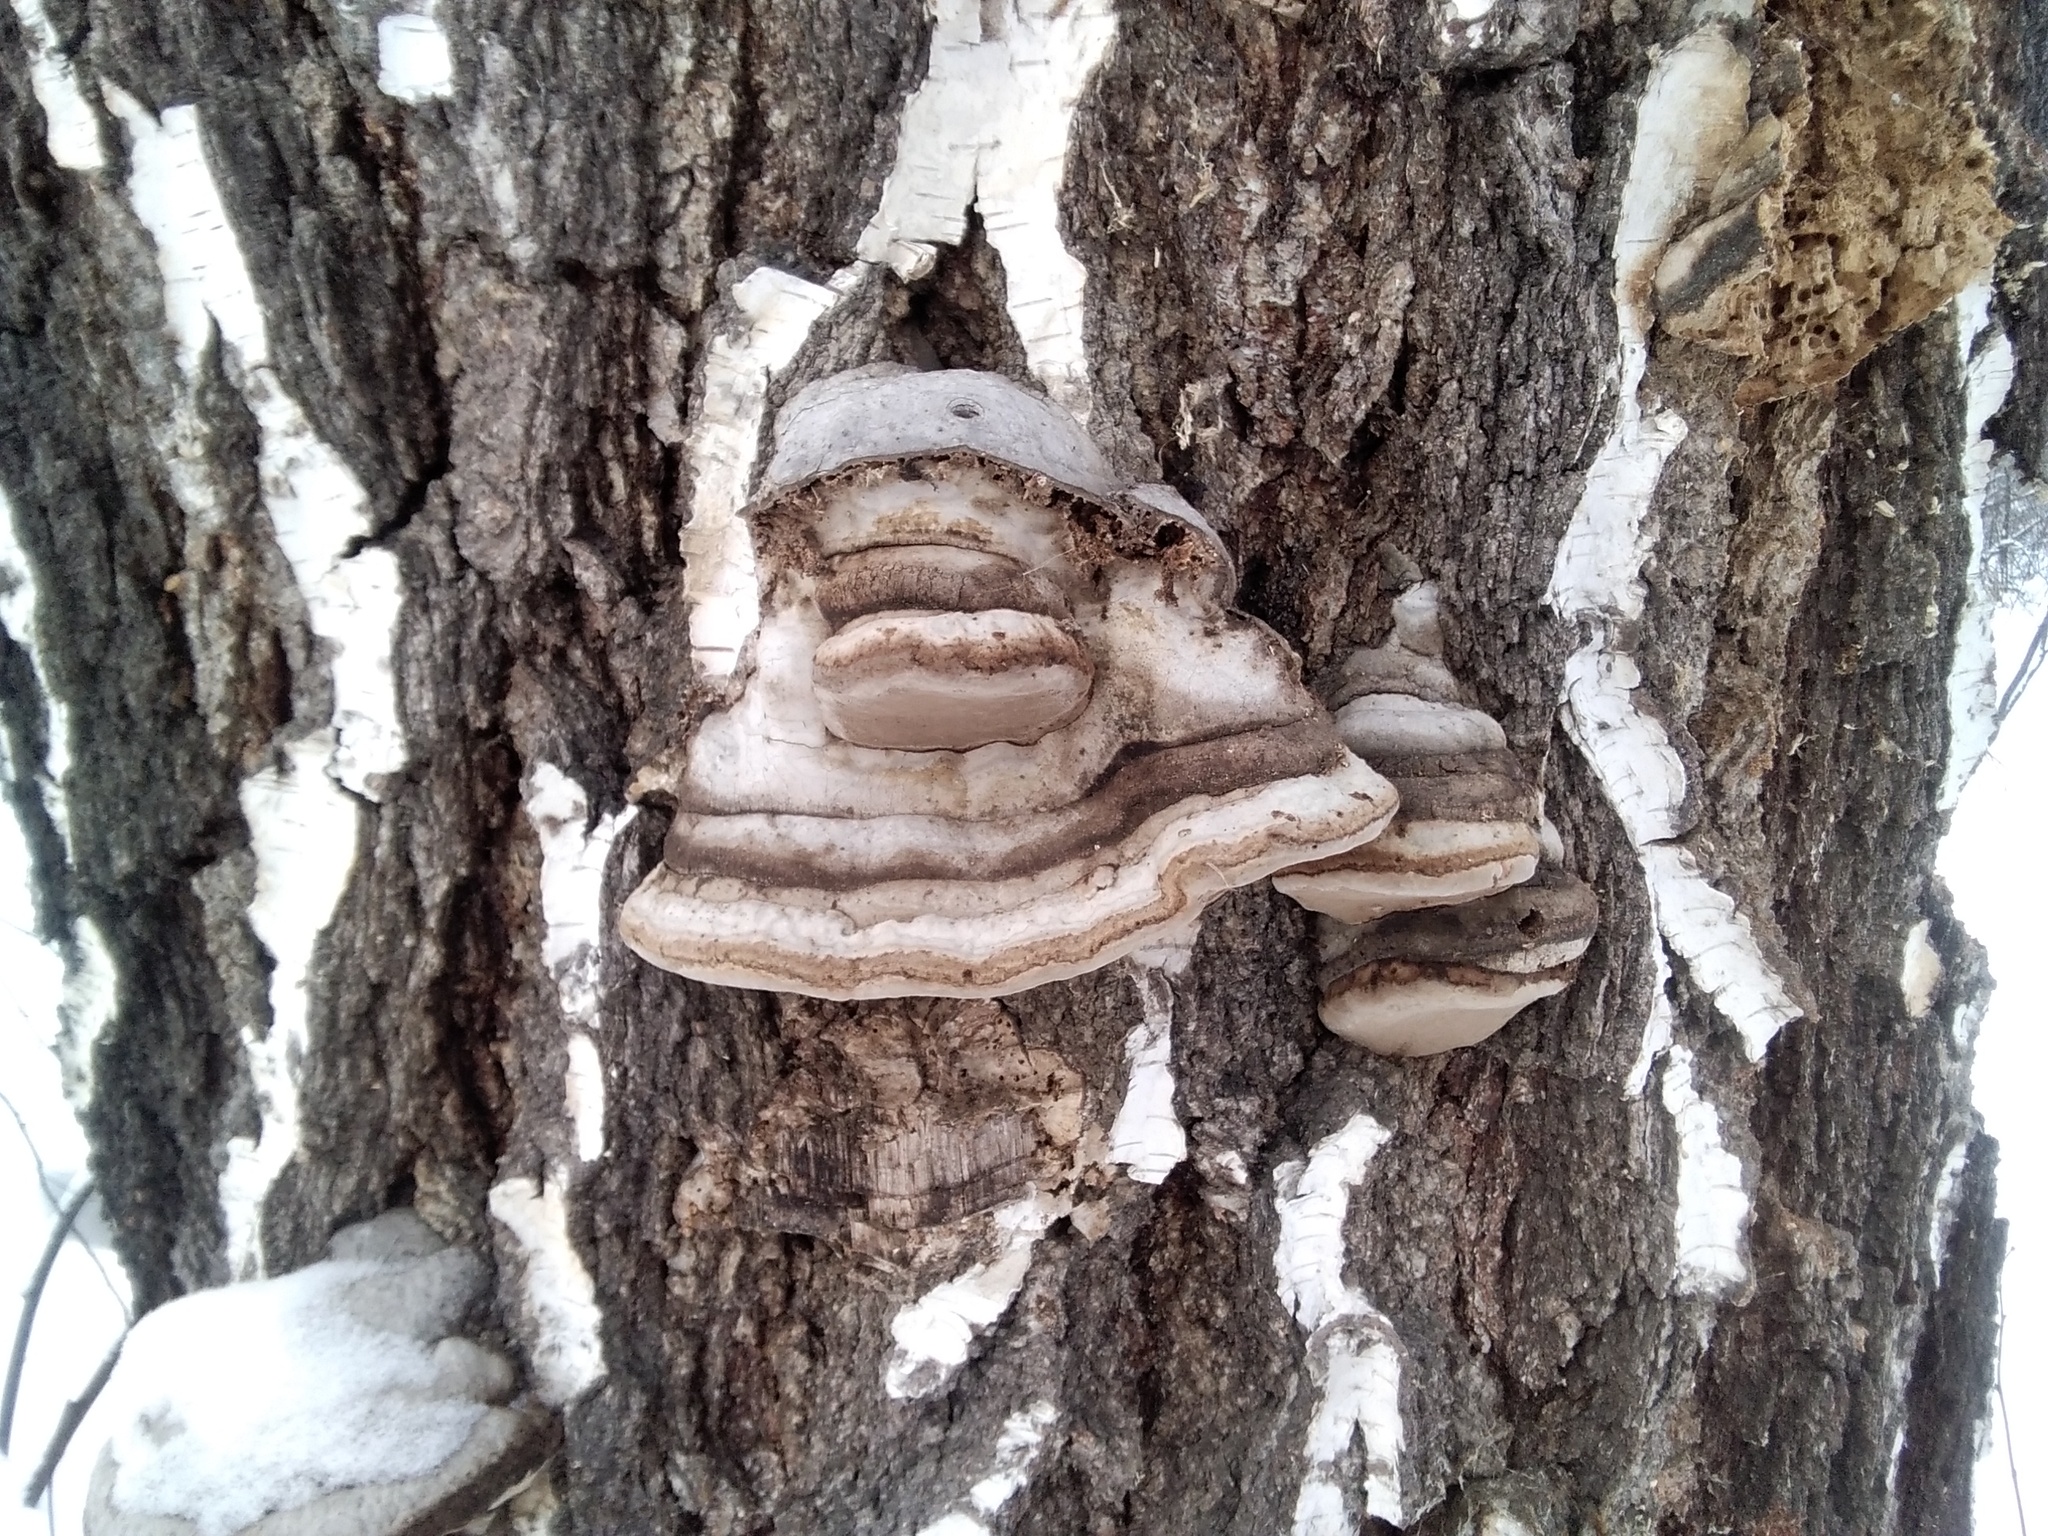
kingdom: Fungi
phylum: Basidiomycota
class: Agaricomycetes
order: Polyporales
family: Polyporaceae
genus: Fomes
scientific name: Fomes fomentarius
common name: Hoof fungus
